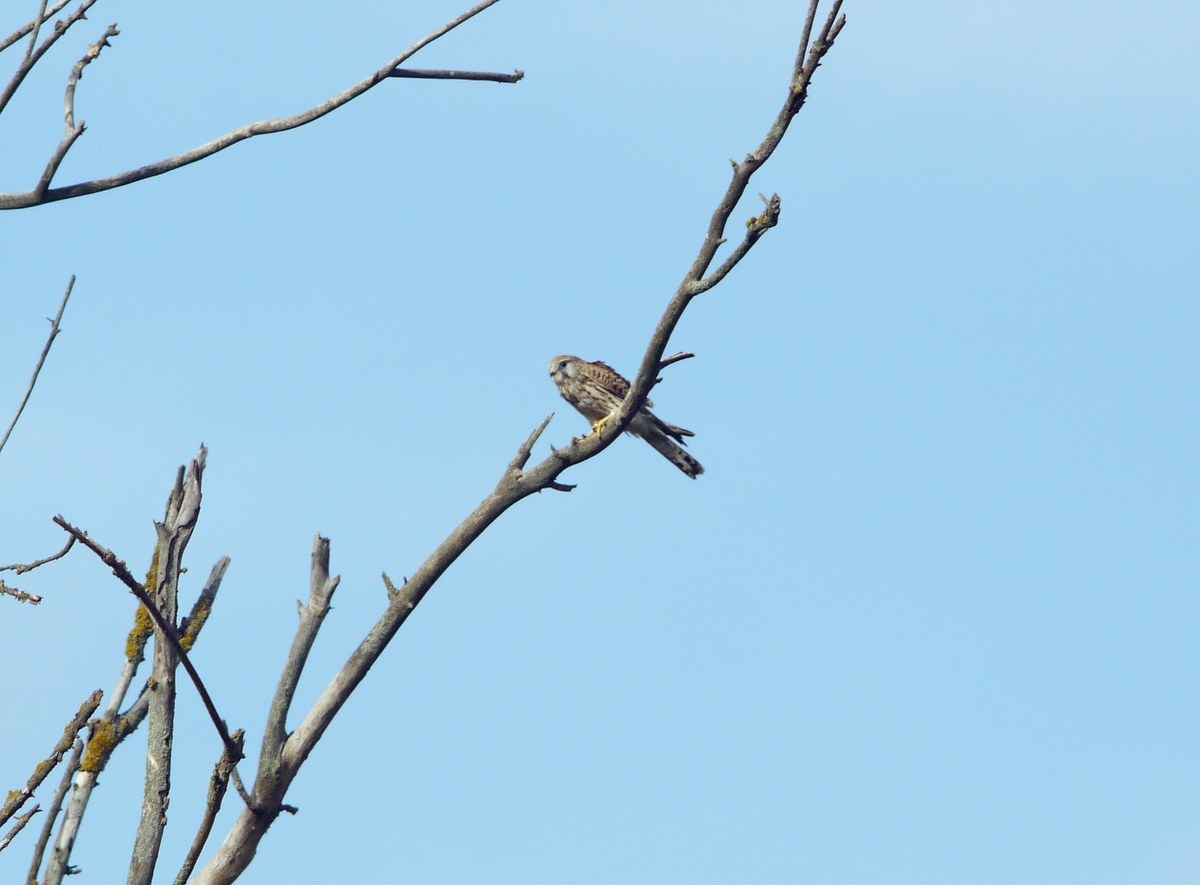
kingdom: Animalia
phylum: Chordata
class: Aves
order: Falconiformes
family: Falconidae
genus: Falco
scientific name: Falco tinnunculus
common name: Common kestrel
